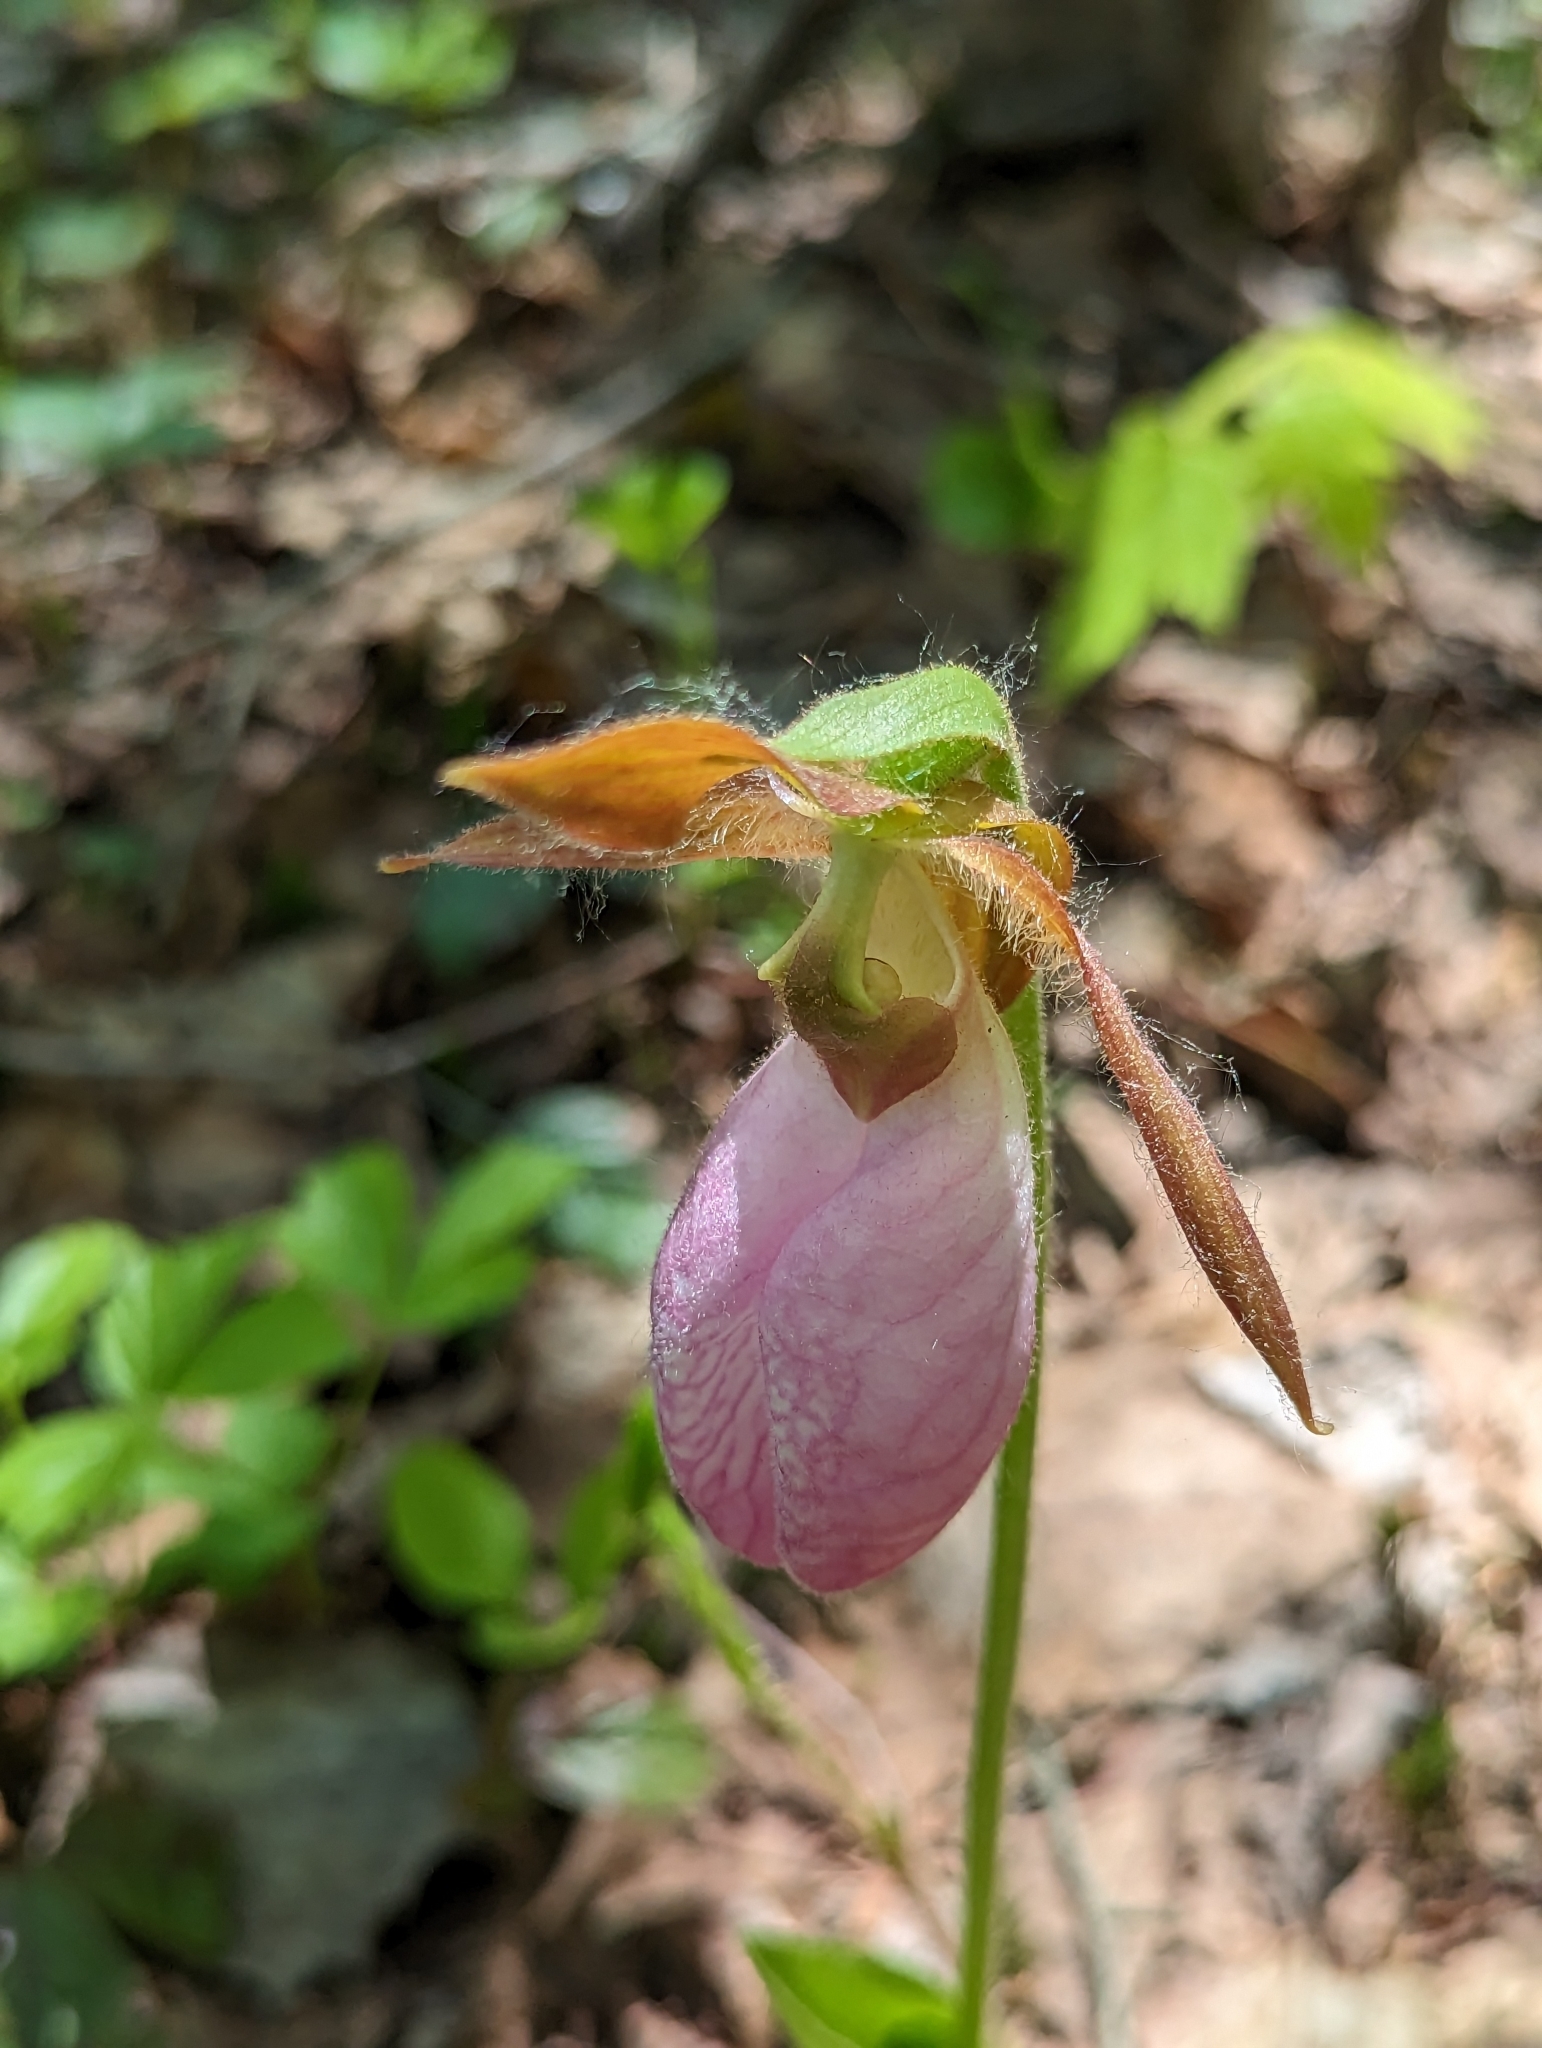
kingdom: Plantae
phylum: Tracheophyta
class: Liliopsida
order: Asparagales
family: Orchidaceae
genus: Cypripedium
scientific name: Cypripedium acaule
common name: Pink lady's-slipper
